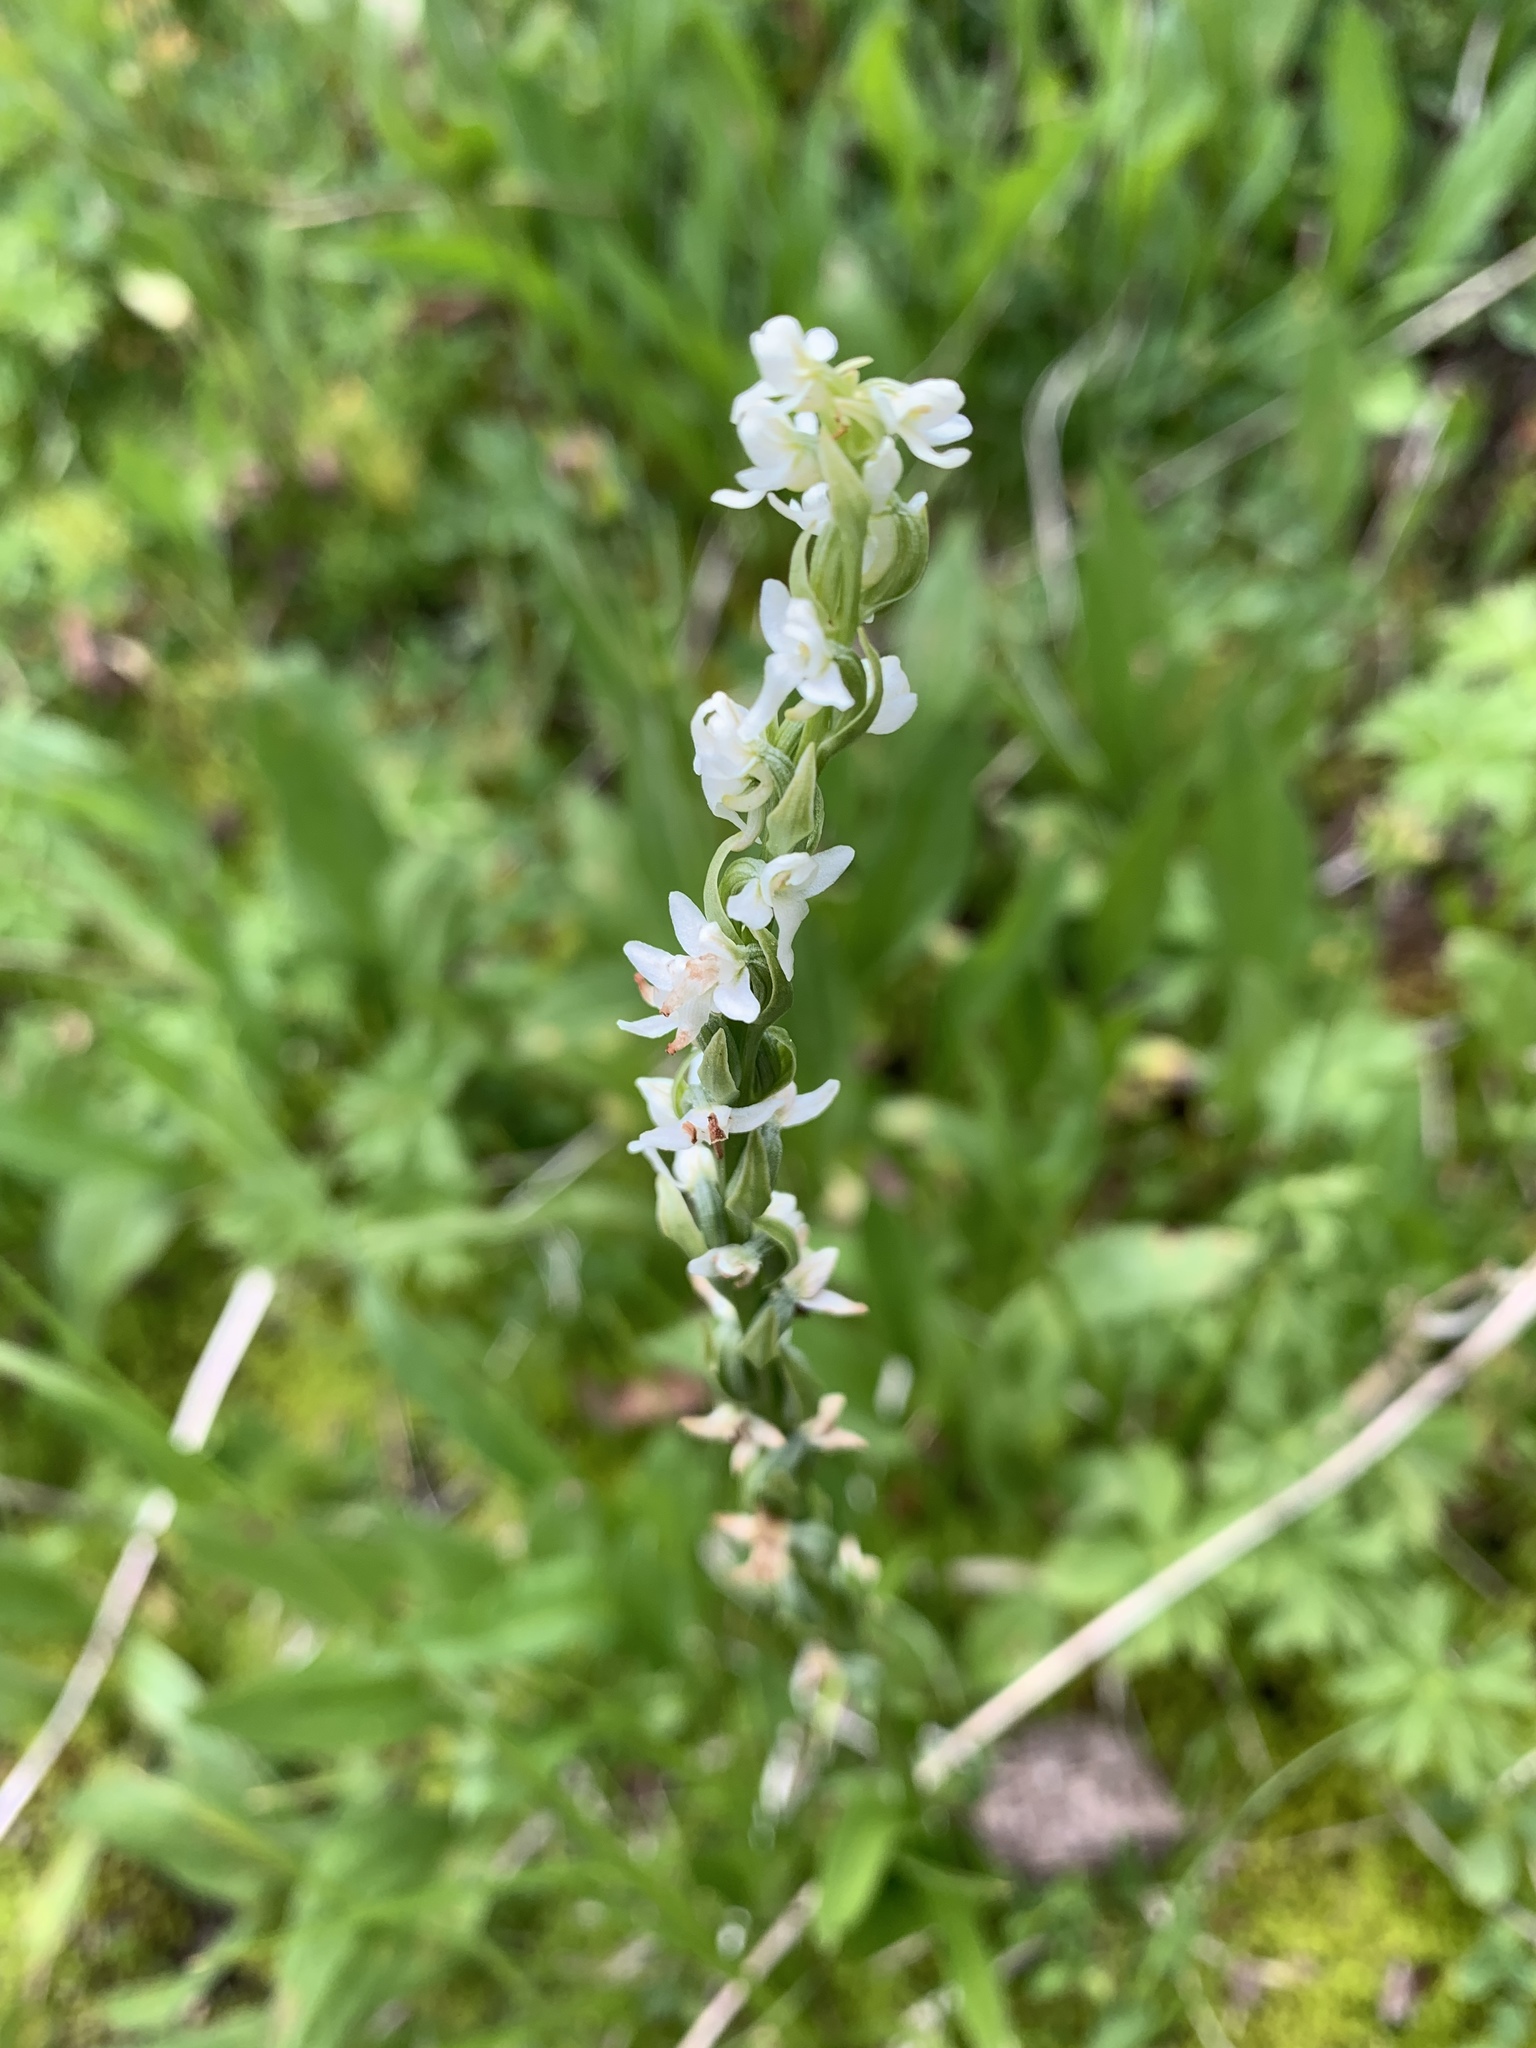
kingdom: Plantae
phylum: Tracheophyta
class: Liliopsida
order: Asparagales
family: Orchidaceae
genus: Platanthera
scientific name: Platanthera dilatata
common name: Bog candles
